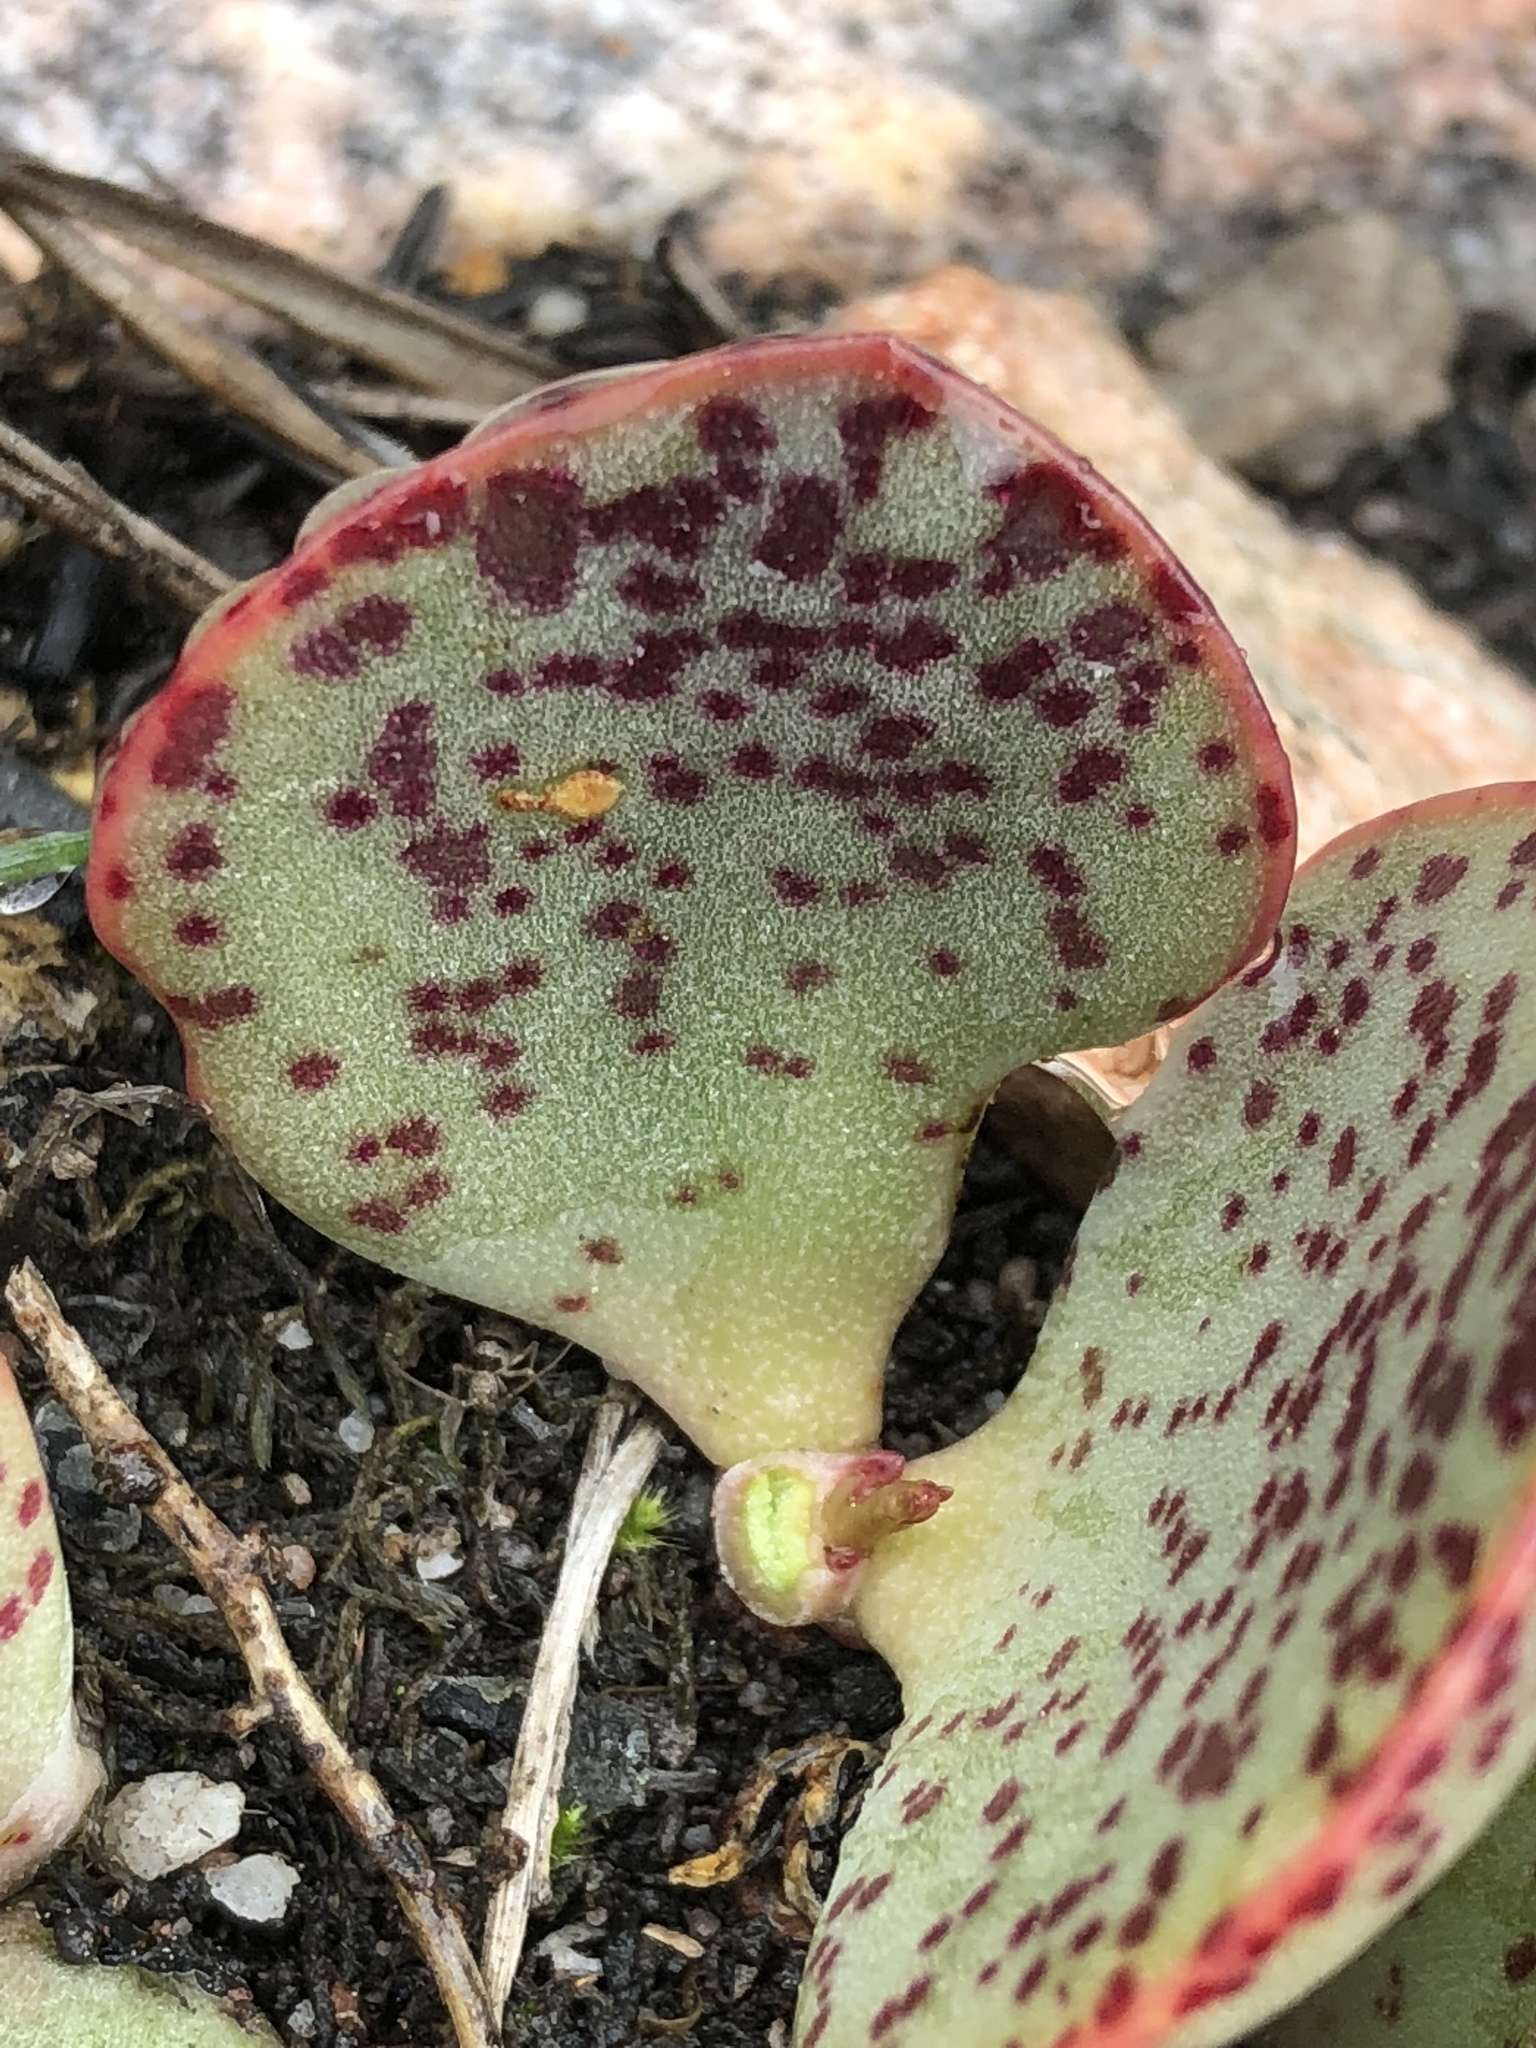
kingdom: Plantae
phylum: Tracheophyta
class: Magnoliopsida
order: Saxifragales
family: Crassulaceae
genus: Adromischus
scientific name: Adromischus inamoenus
